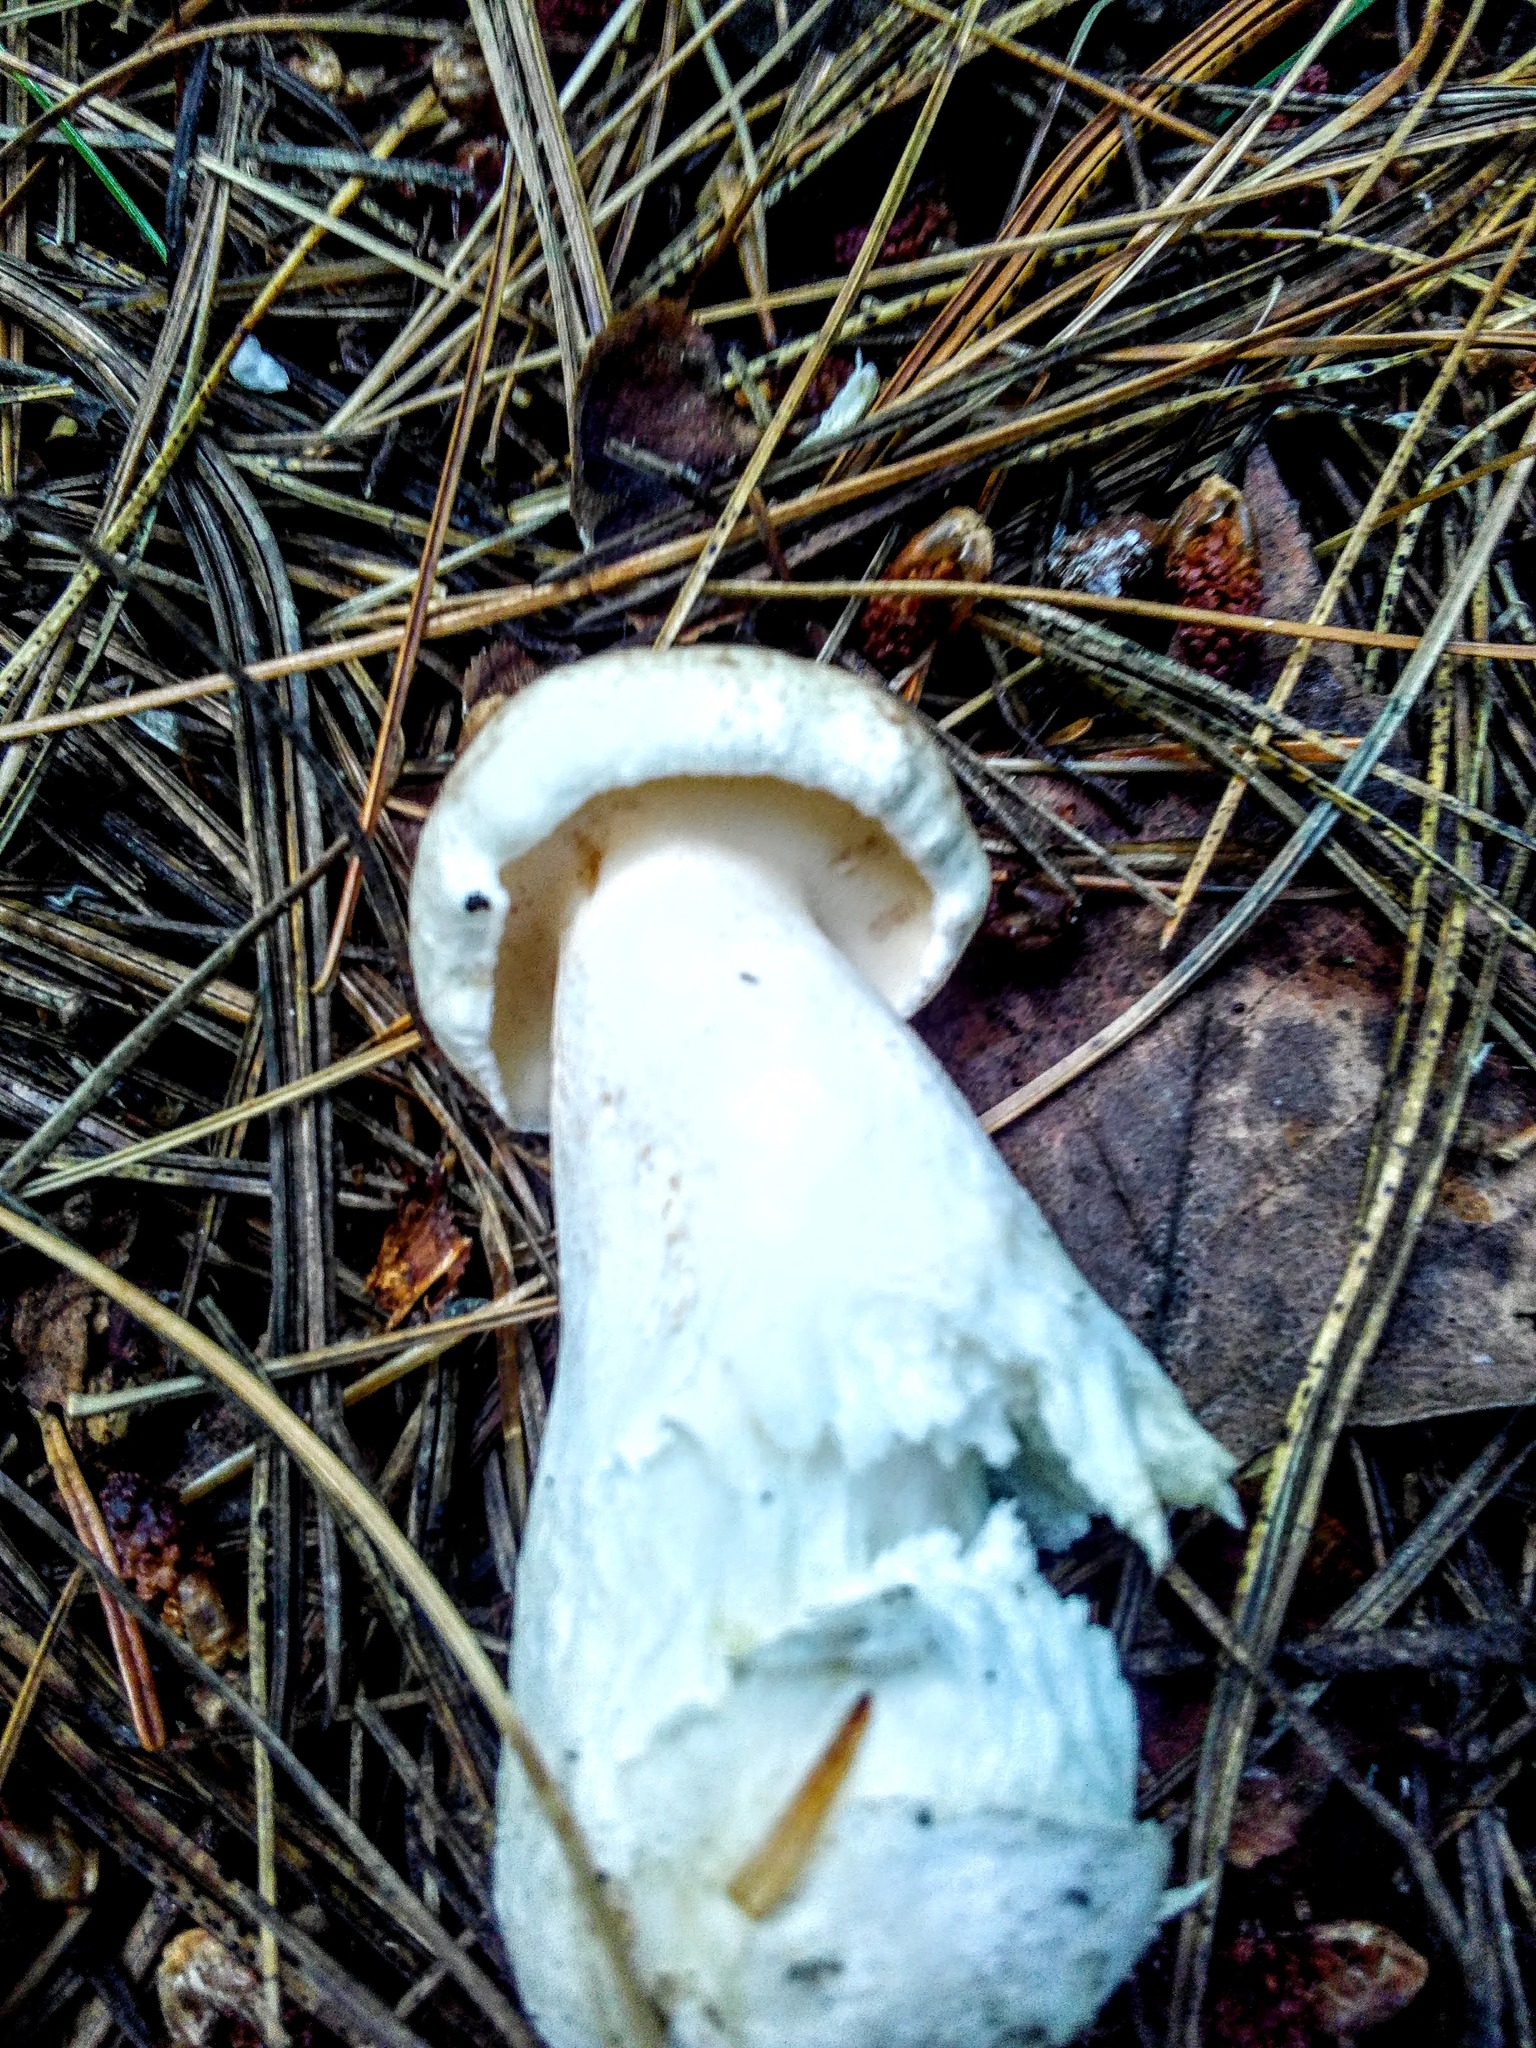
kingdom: Fungi
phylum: Basidiomycota
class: Agaricomycetes
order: Boletales
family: Suillaceae
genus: Suillus
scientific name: Suillus placidus
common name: Slippery white bolete
